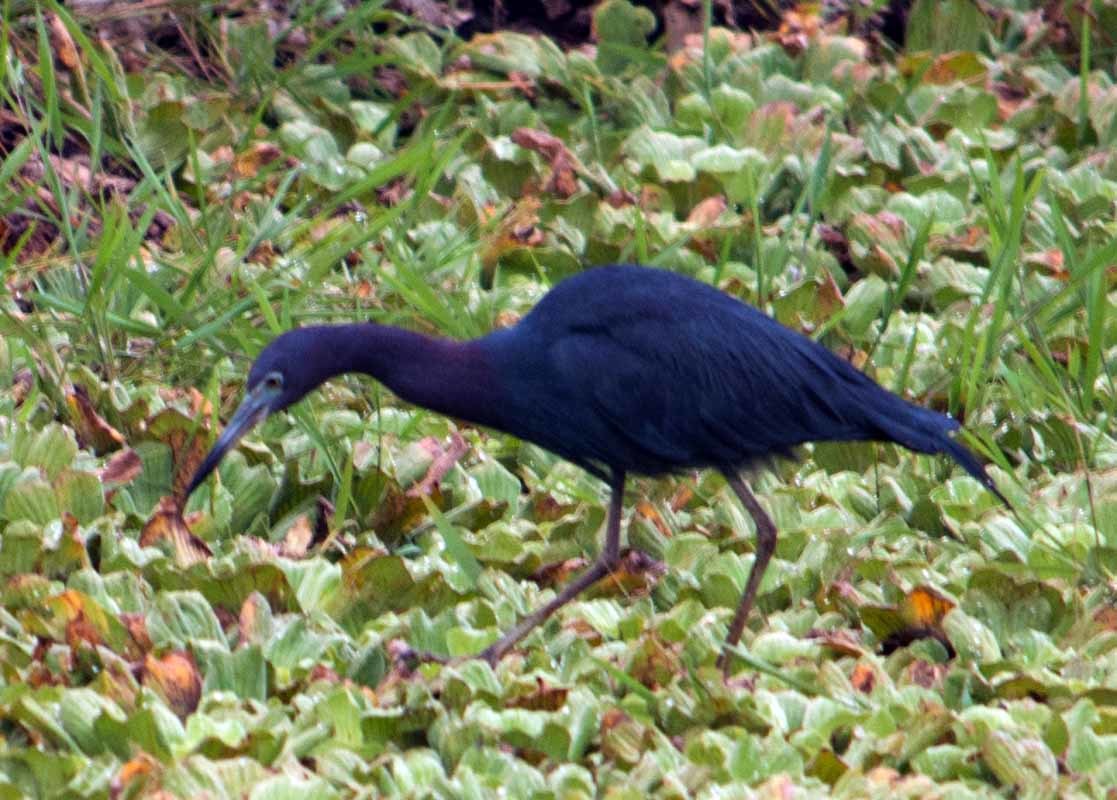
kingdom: Animalia
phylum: Chordata
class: Aves
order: Pelecaniformes
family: Ardeidae
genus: Egretta
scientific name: Egretta caerulea
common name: Little blue heron
